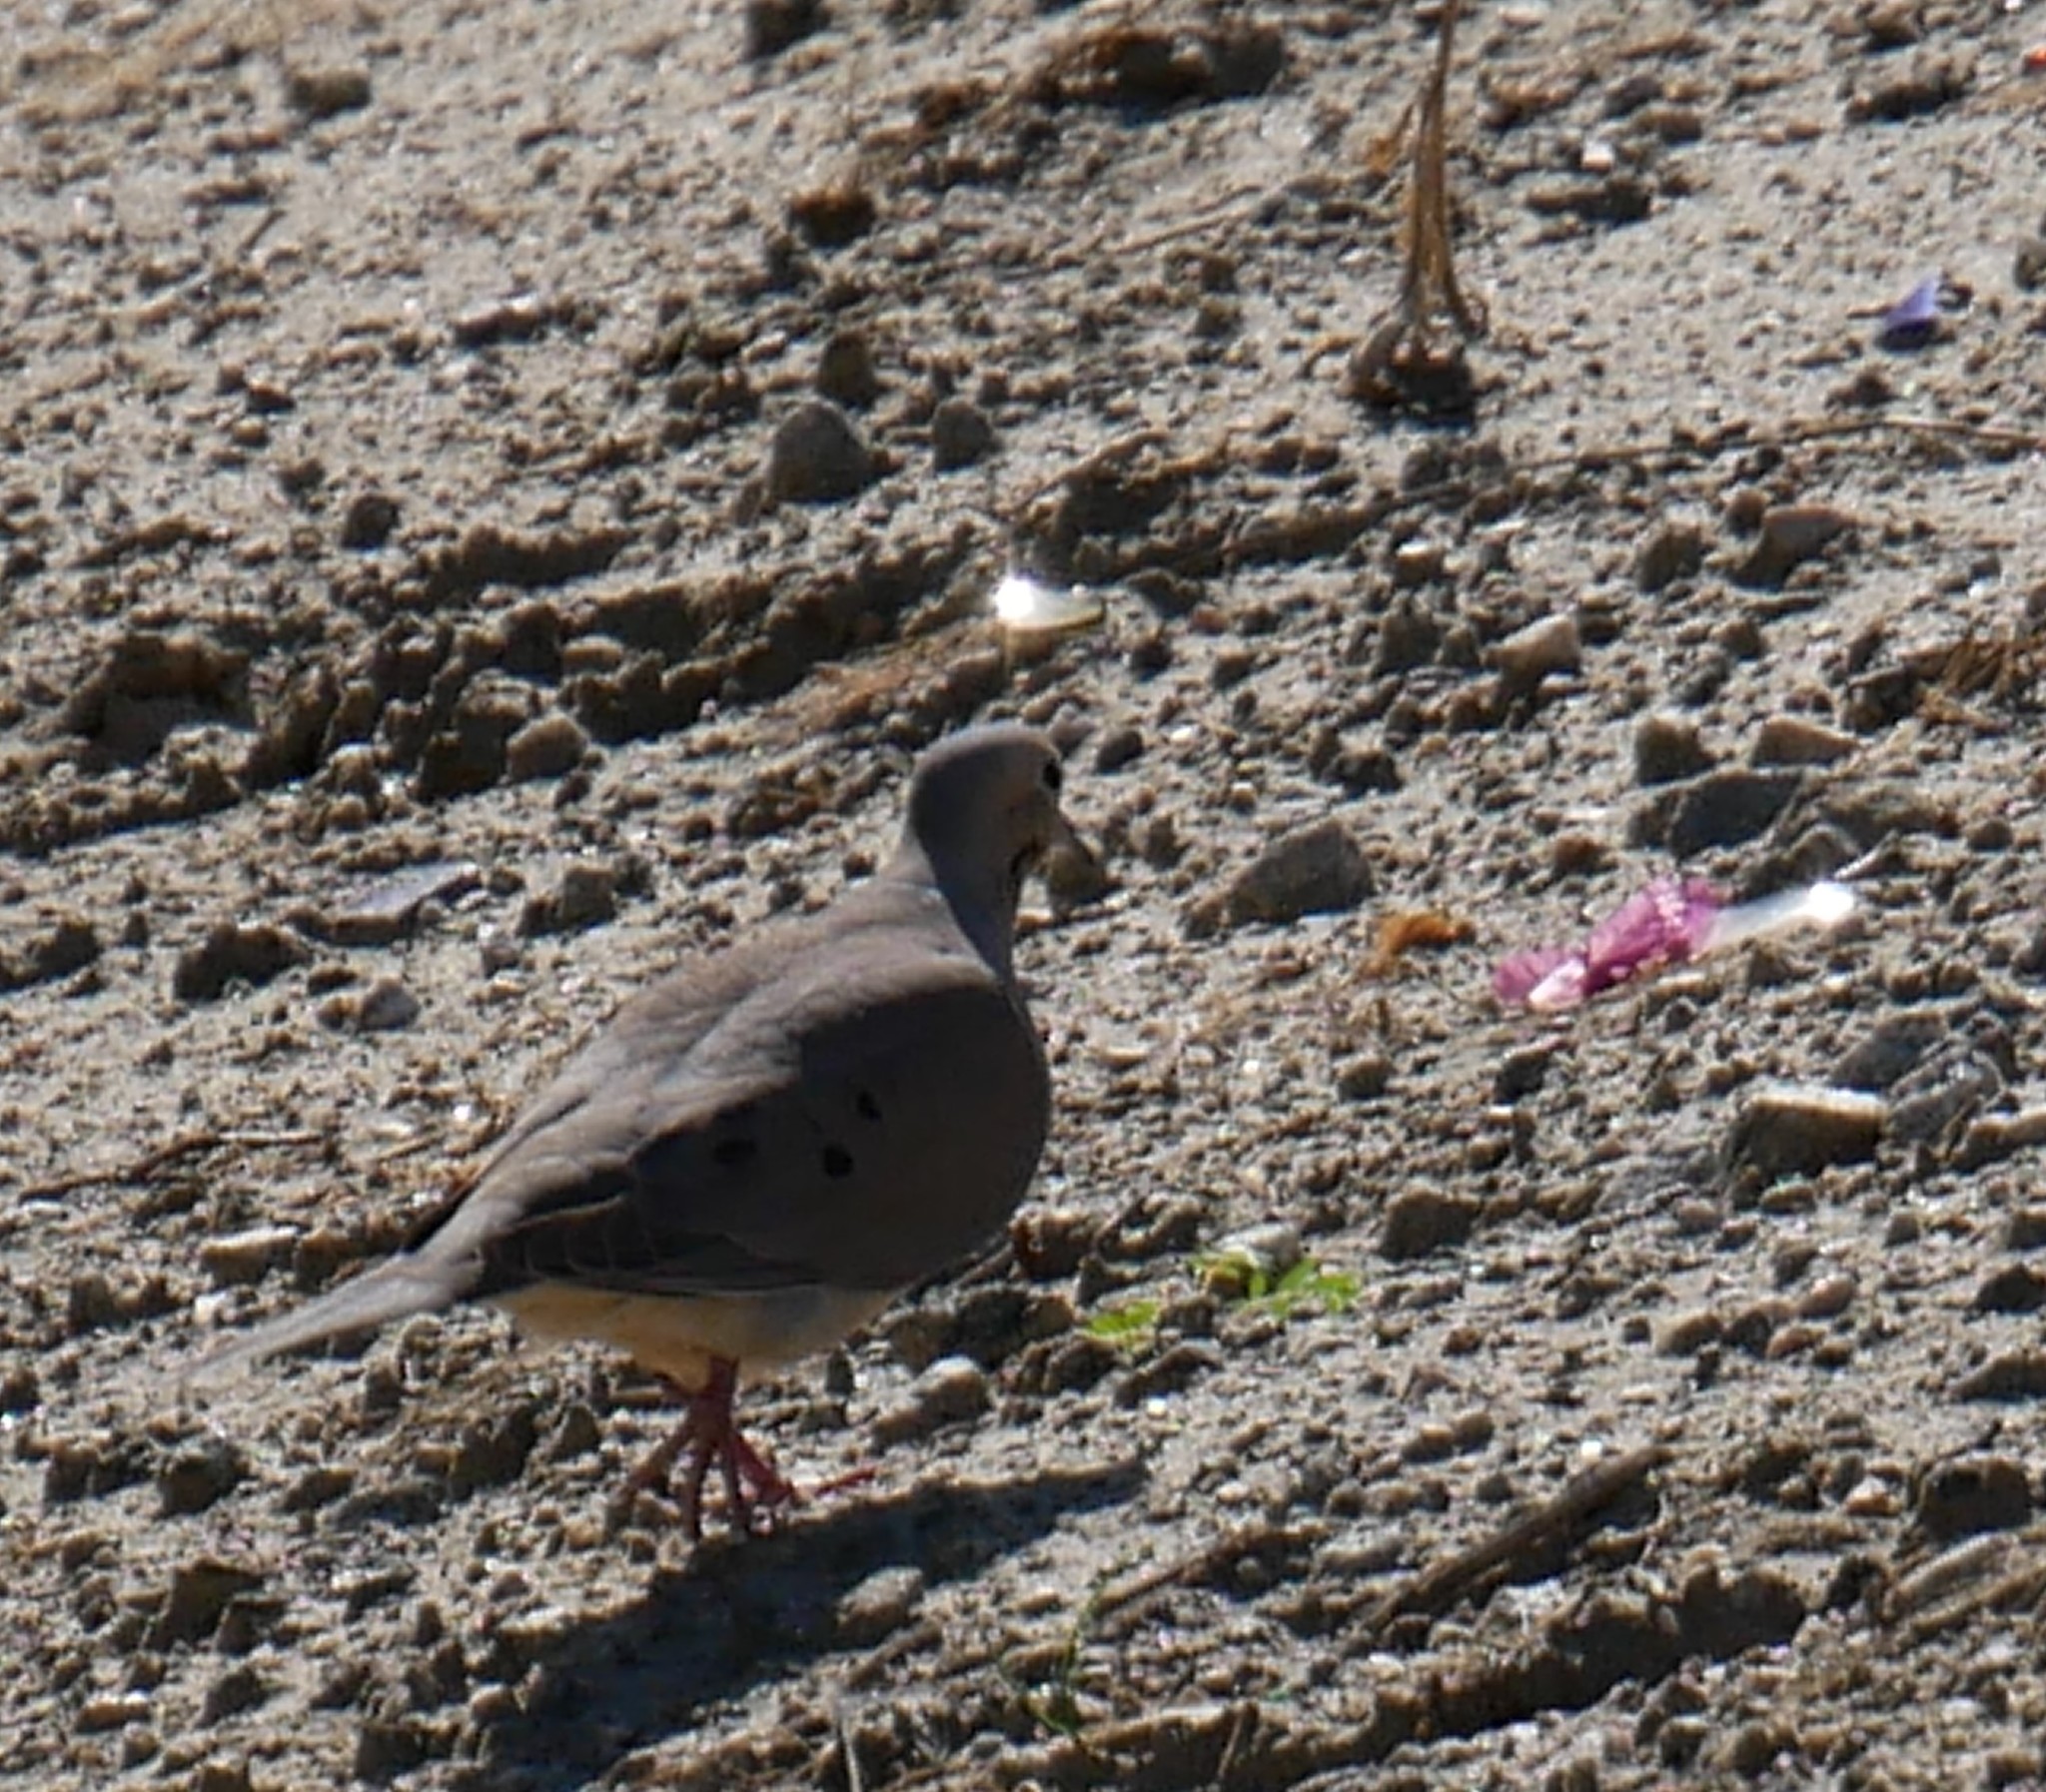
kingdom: Animalia
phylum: Chordata
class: Aves
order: Columbiformes
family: Columbidae
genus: Zenaida
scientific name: Zenaida macroura
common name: Mourning dove
